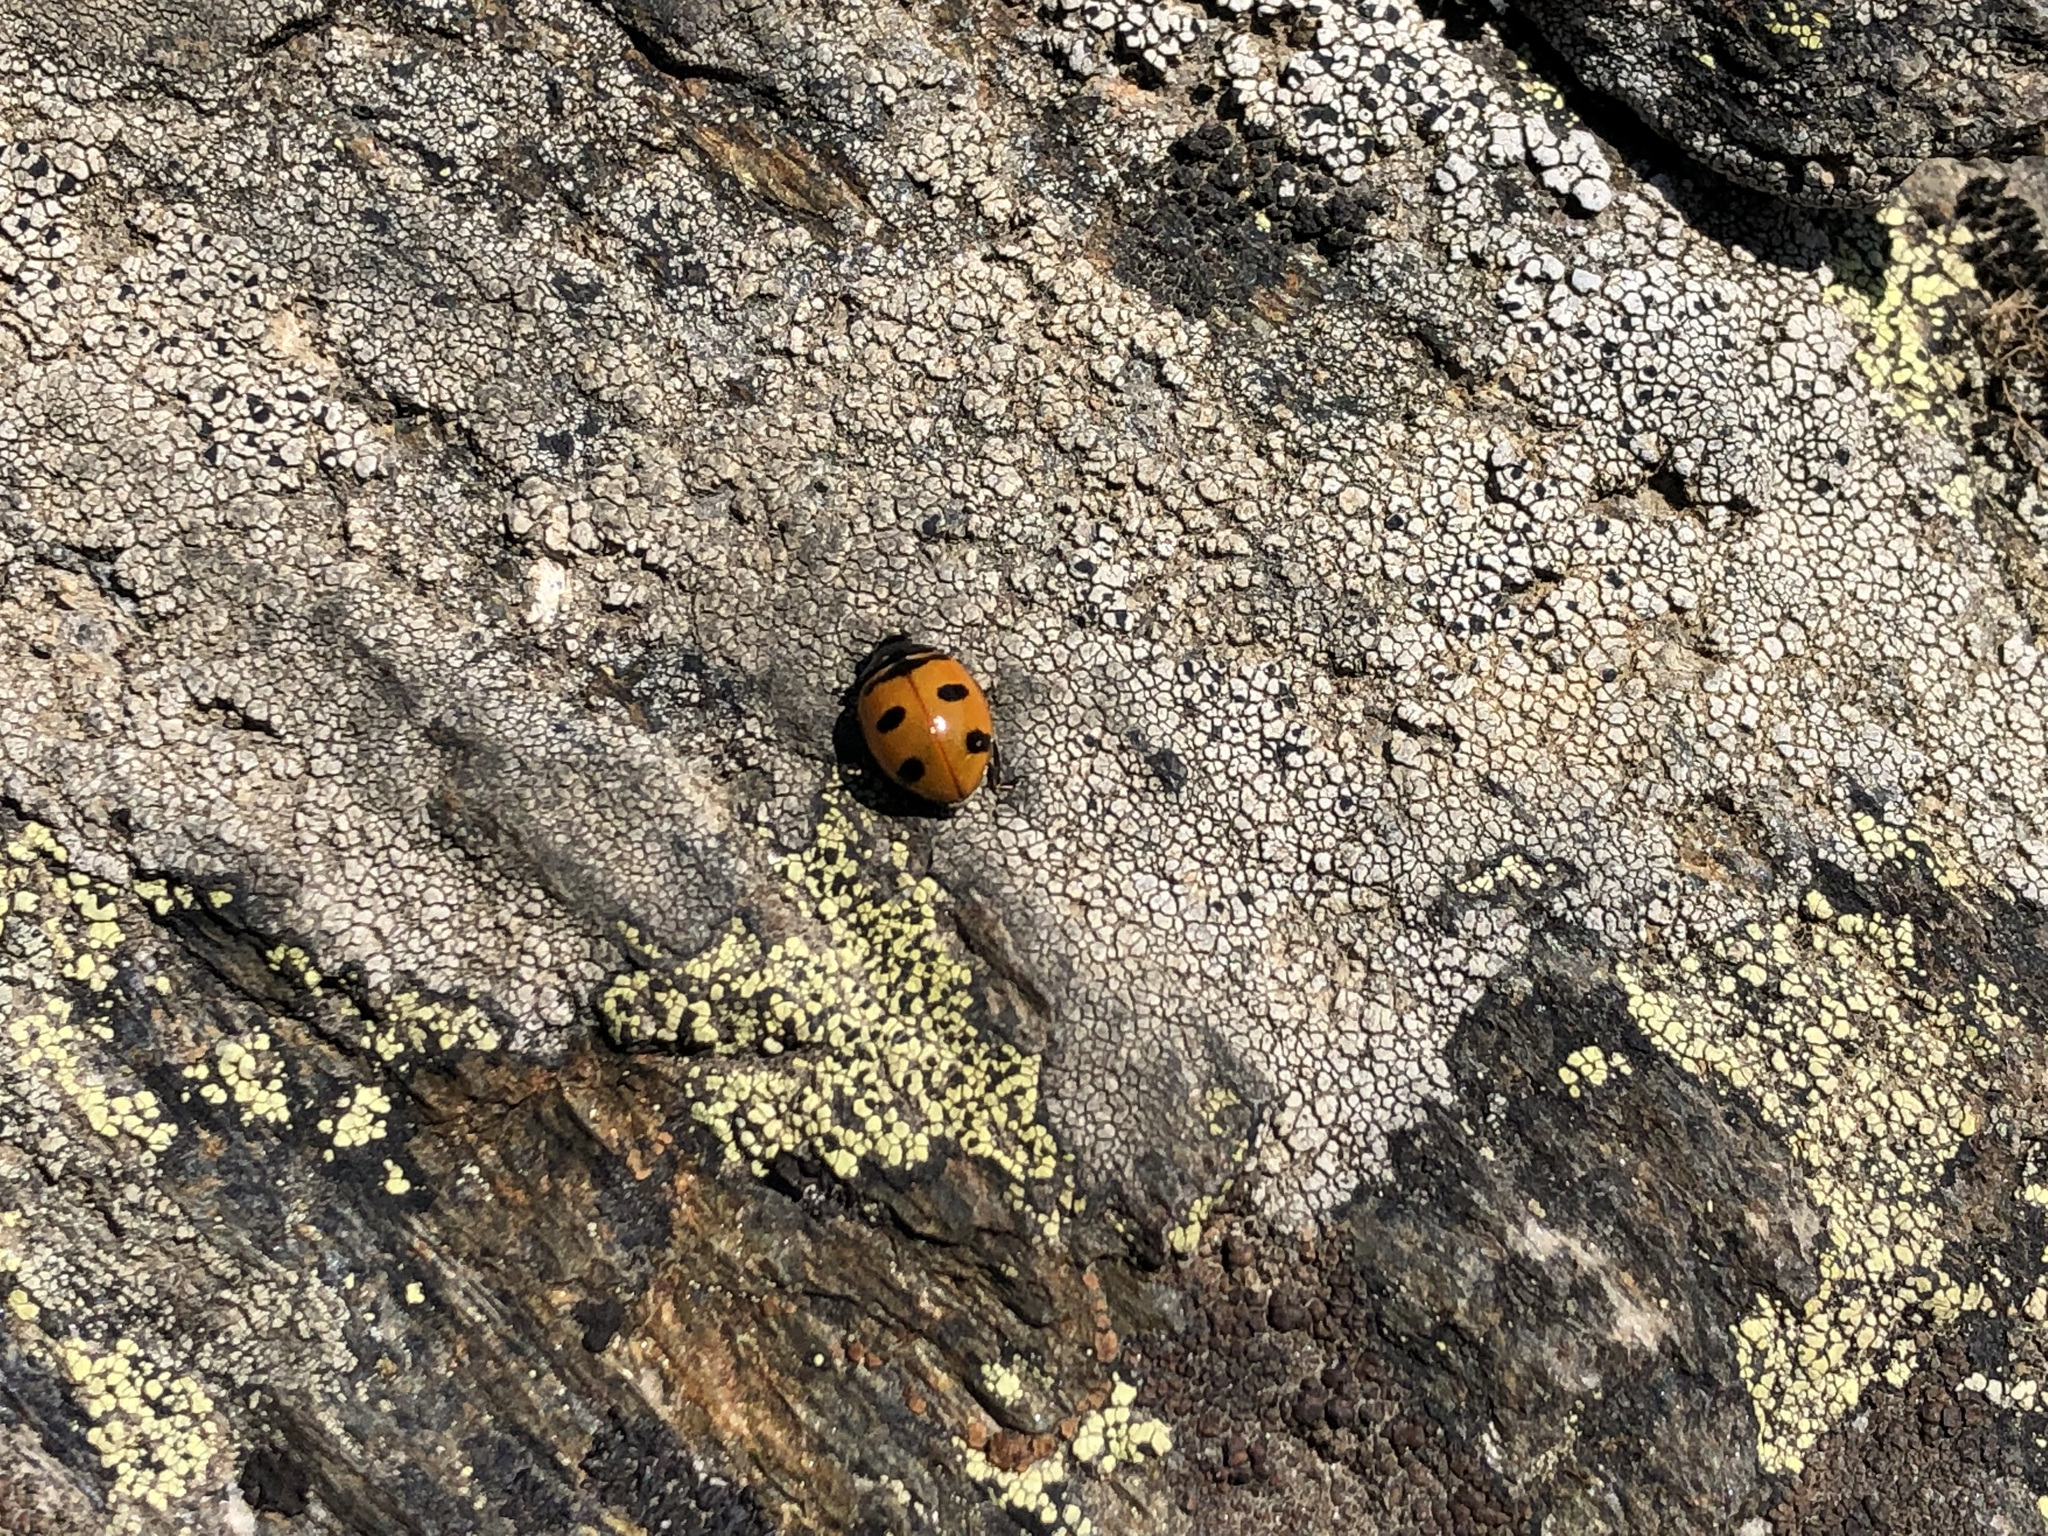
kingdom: Animalia
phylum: Arthropoda
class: Insecta
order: Coleoptera
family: Coccinellidae
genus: Coccinella
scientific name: Coccinella transversoguttata
